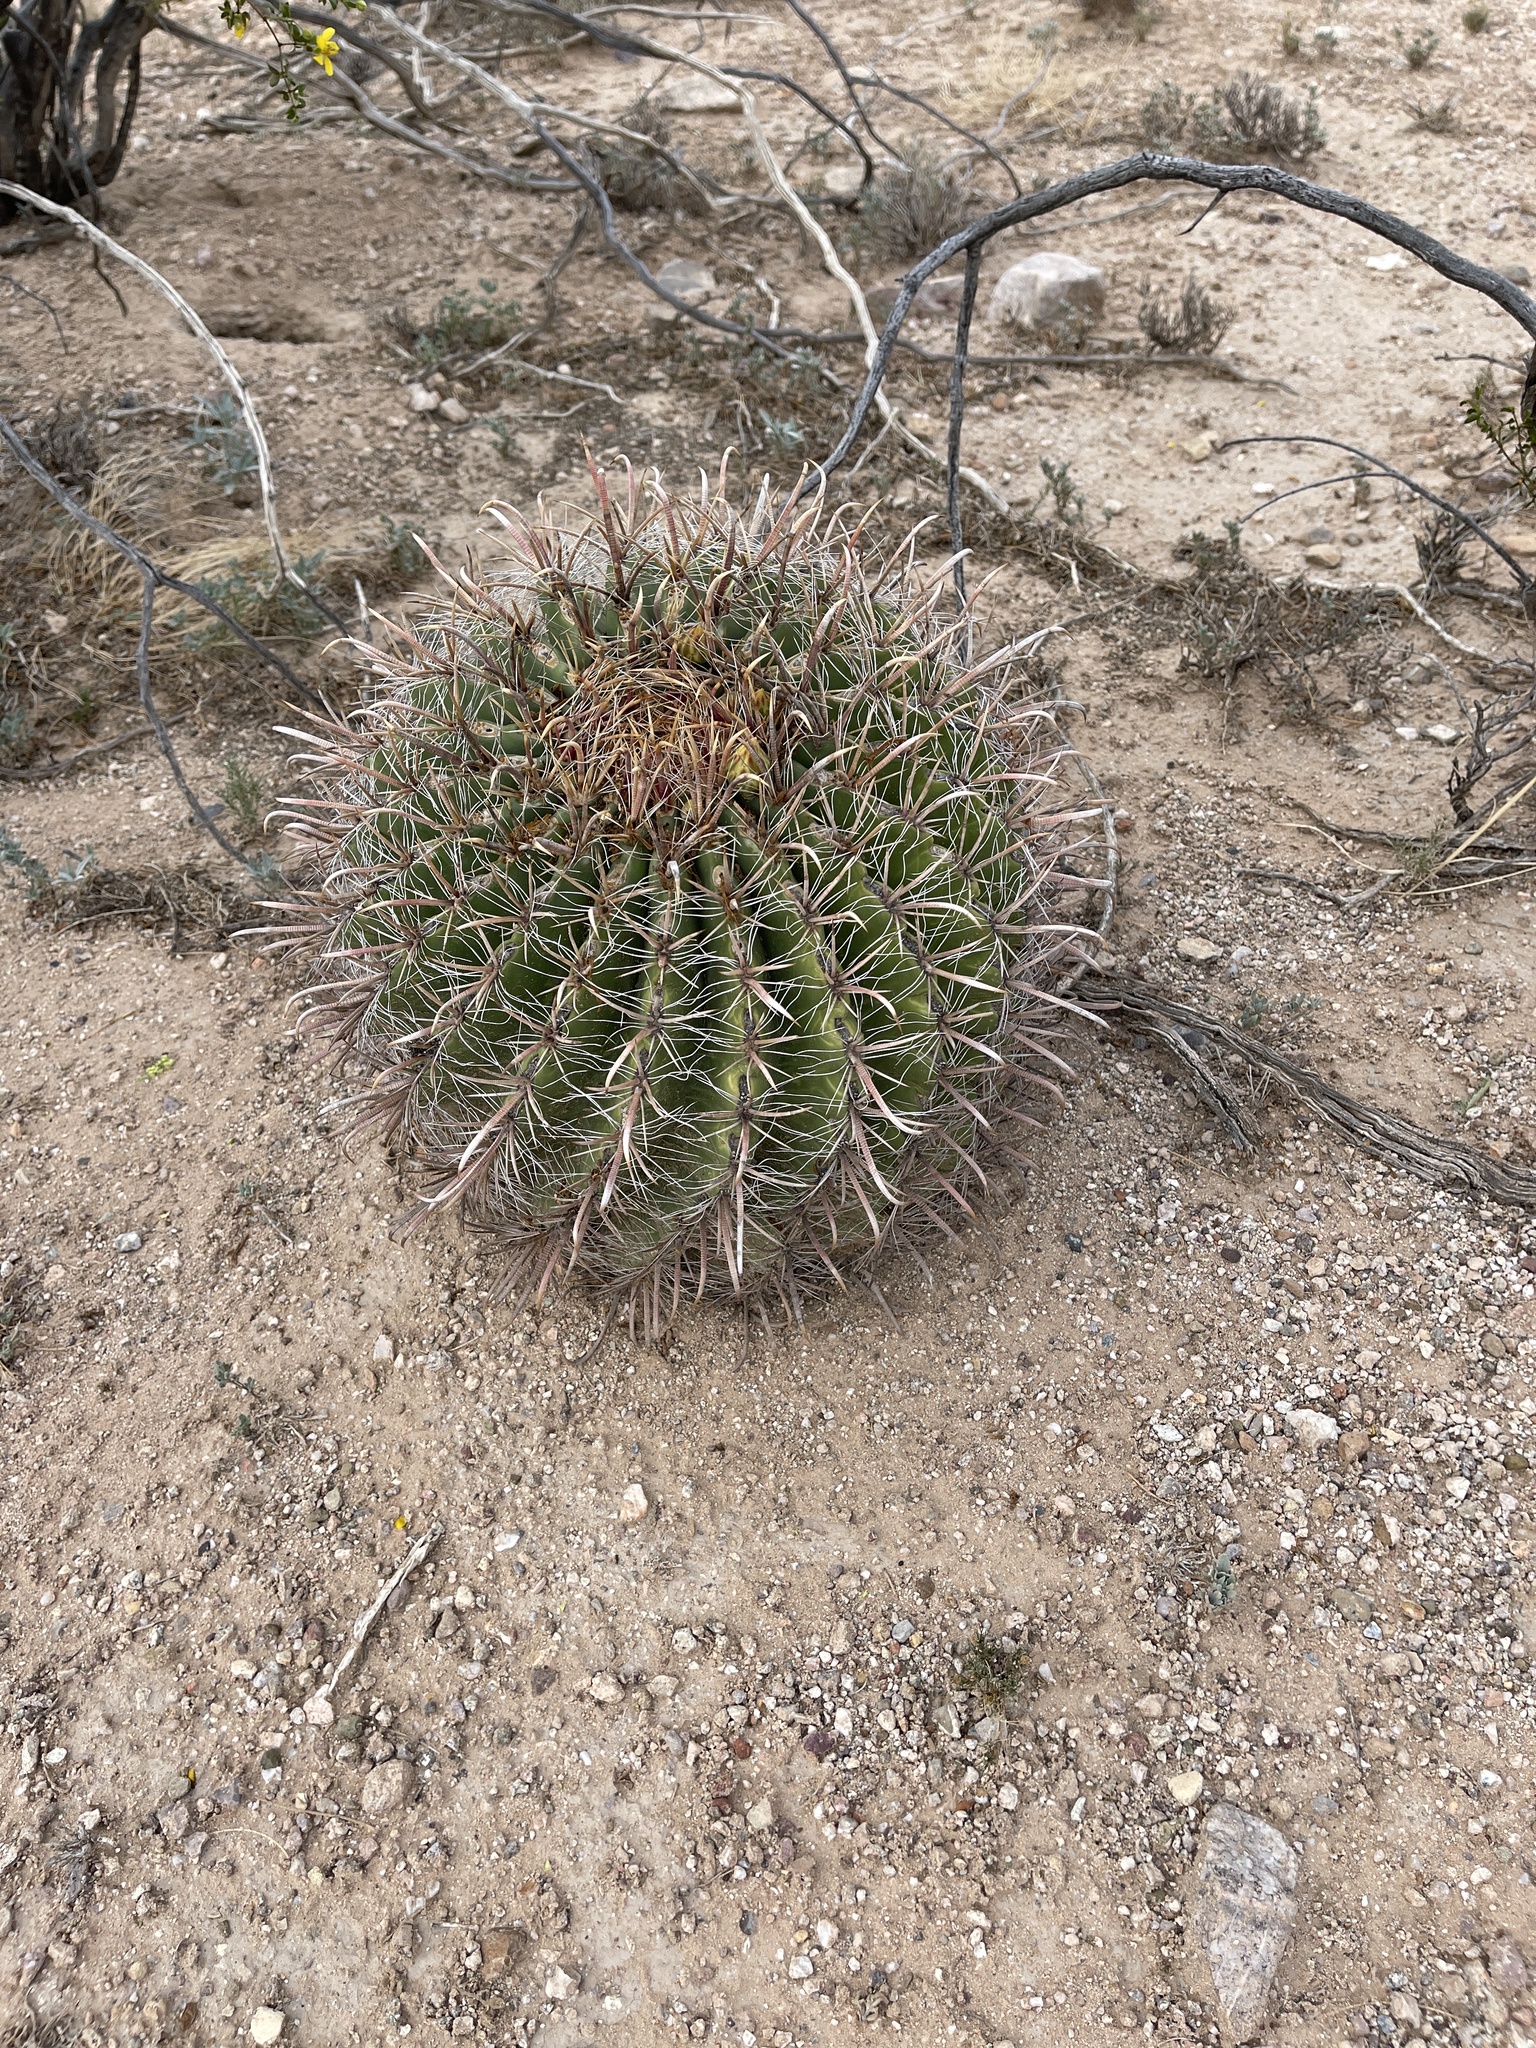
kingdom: Plantae
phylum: Tracheophyta
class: Magnoliopsida
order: Caryophyllales
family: Cactaceae
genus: Ferocactus
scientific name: Ferocactus wislizeni
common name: Candy barrel cactus
